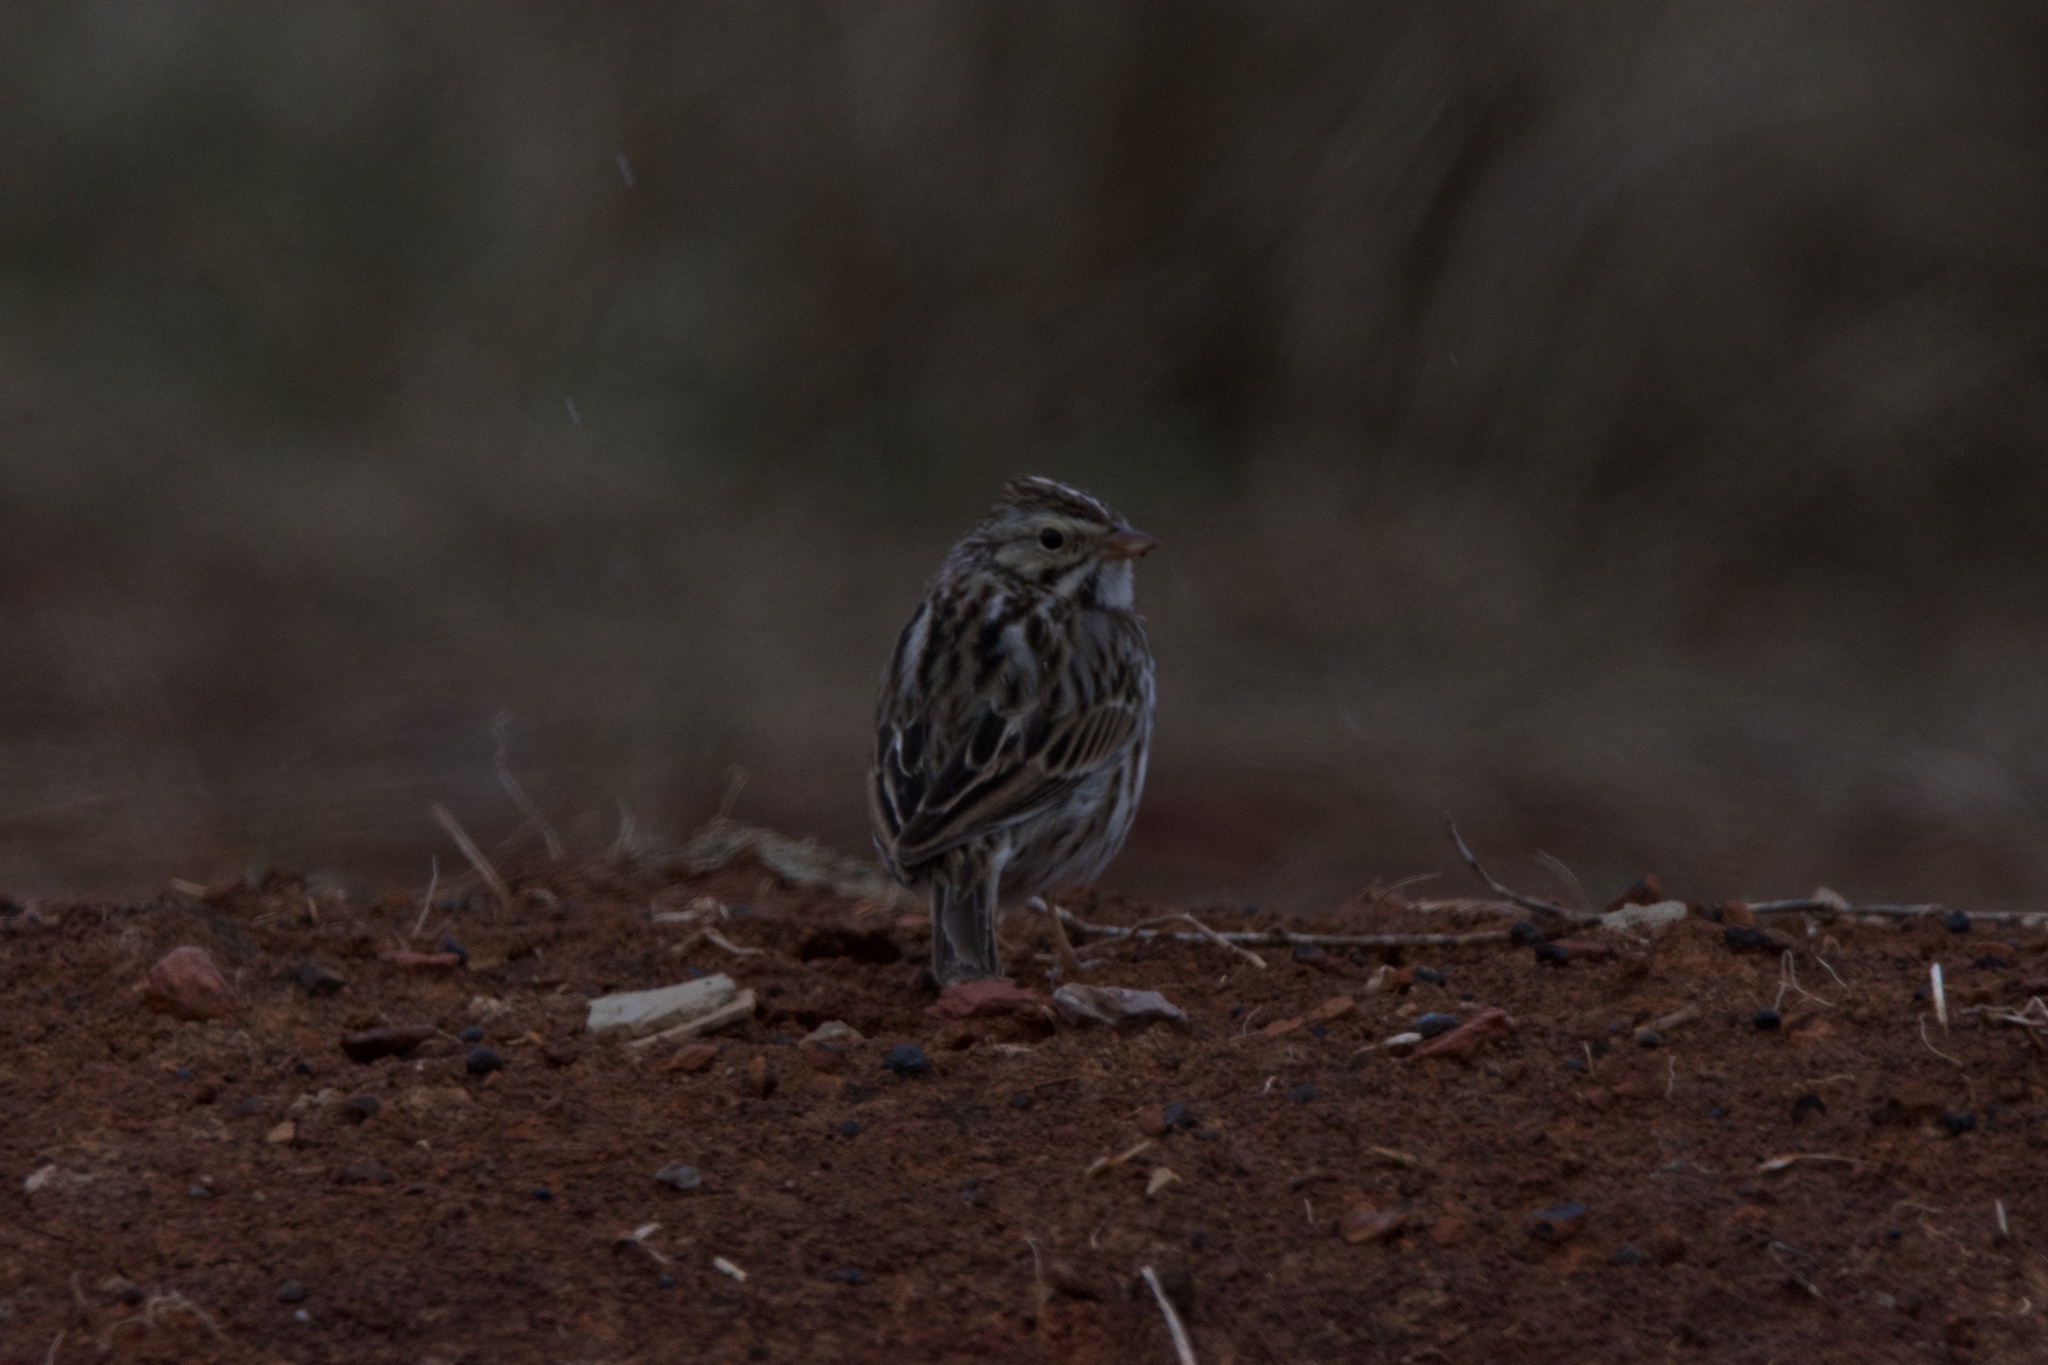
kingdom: Animalia
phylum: Chordata
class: Aves
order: Passeriformes
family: Passerellidae
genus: Passerculus
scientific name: Passerculus sandwichensis
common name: Savannah sparrow
